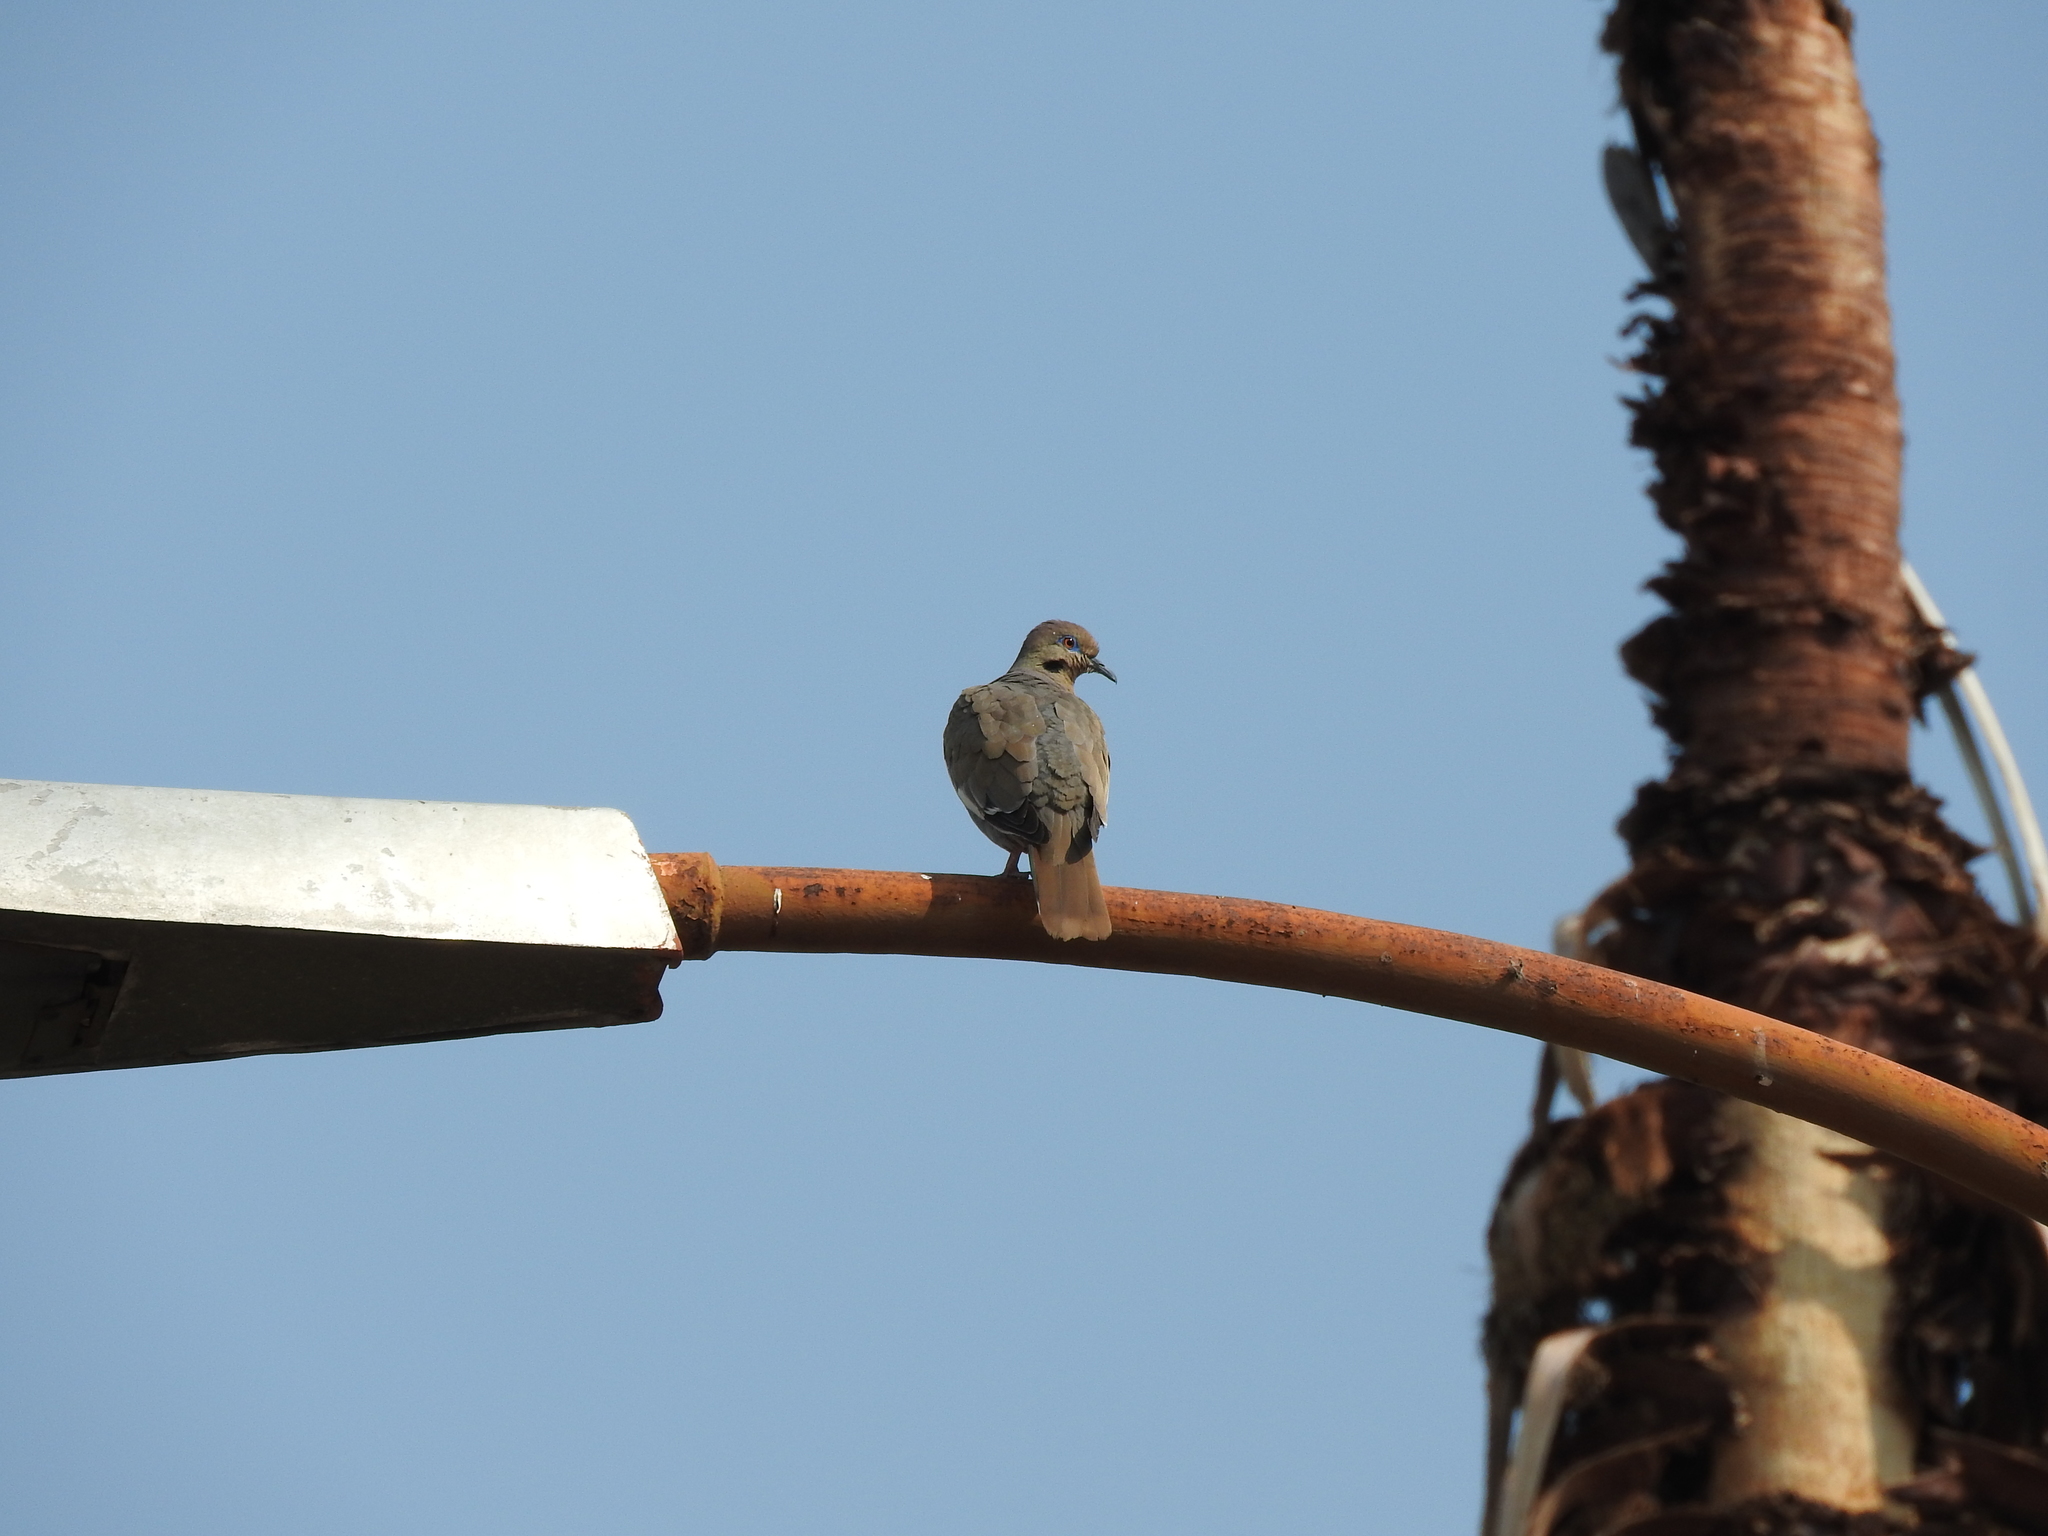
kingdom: Animalia
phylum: Chordata
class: Aves
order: Columbiformes
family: Columbidae
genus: Zenaida
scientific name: Zenaida asiatica
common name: White-winged dove
